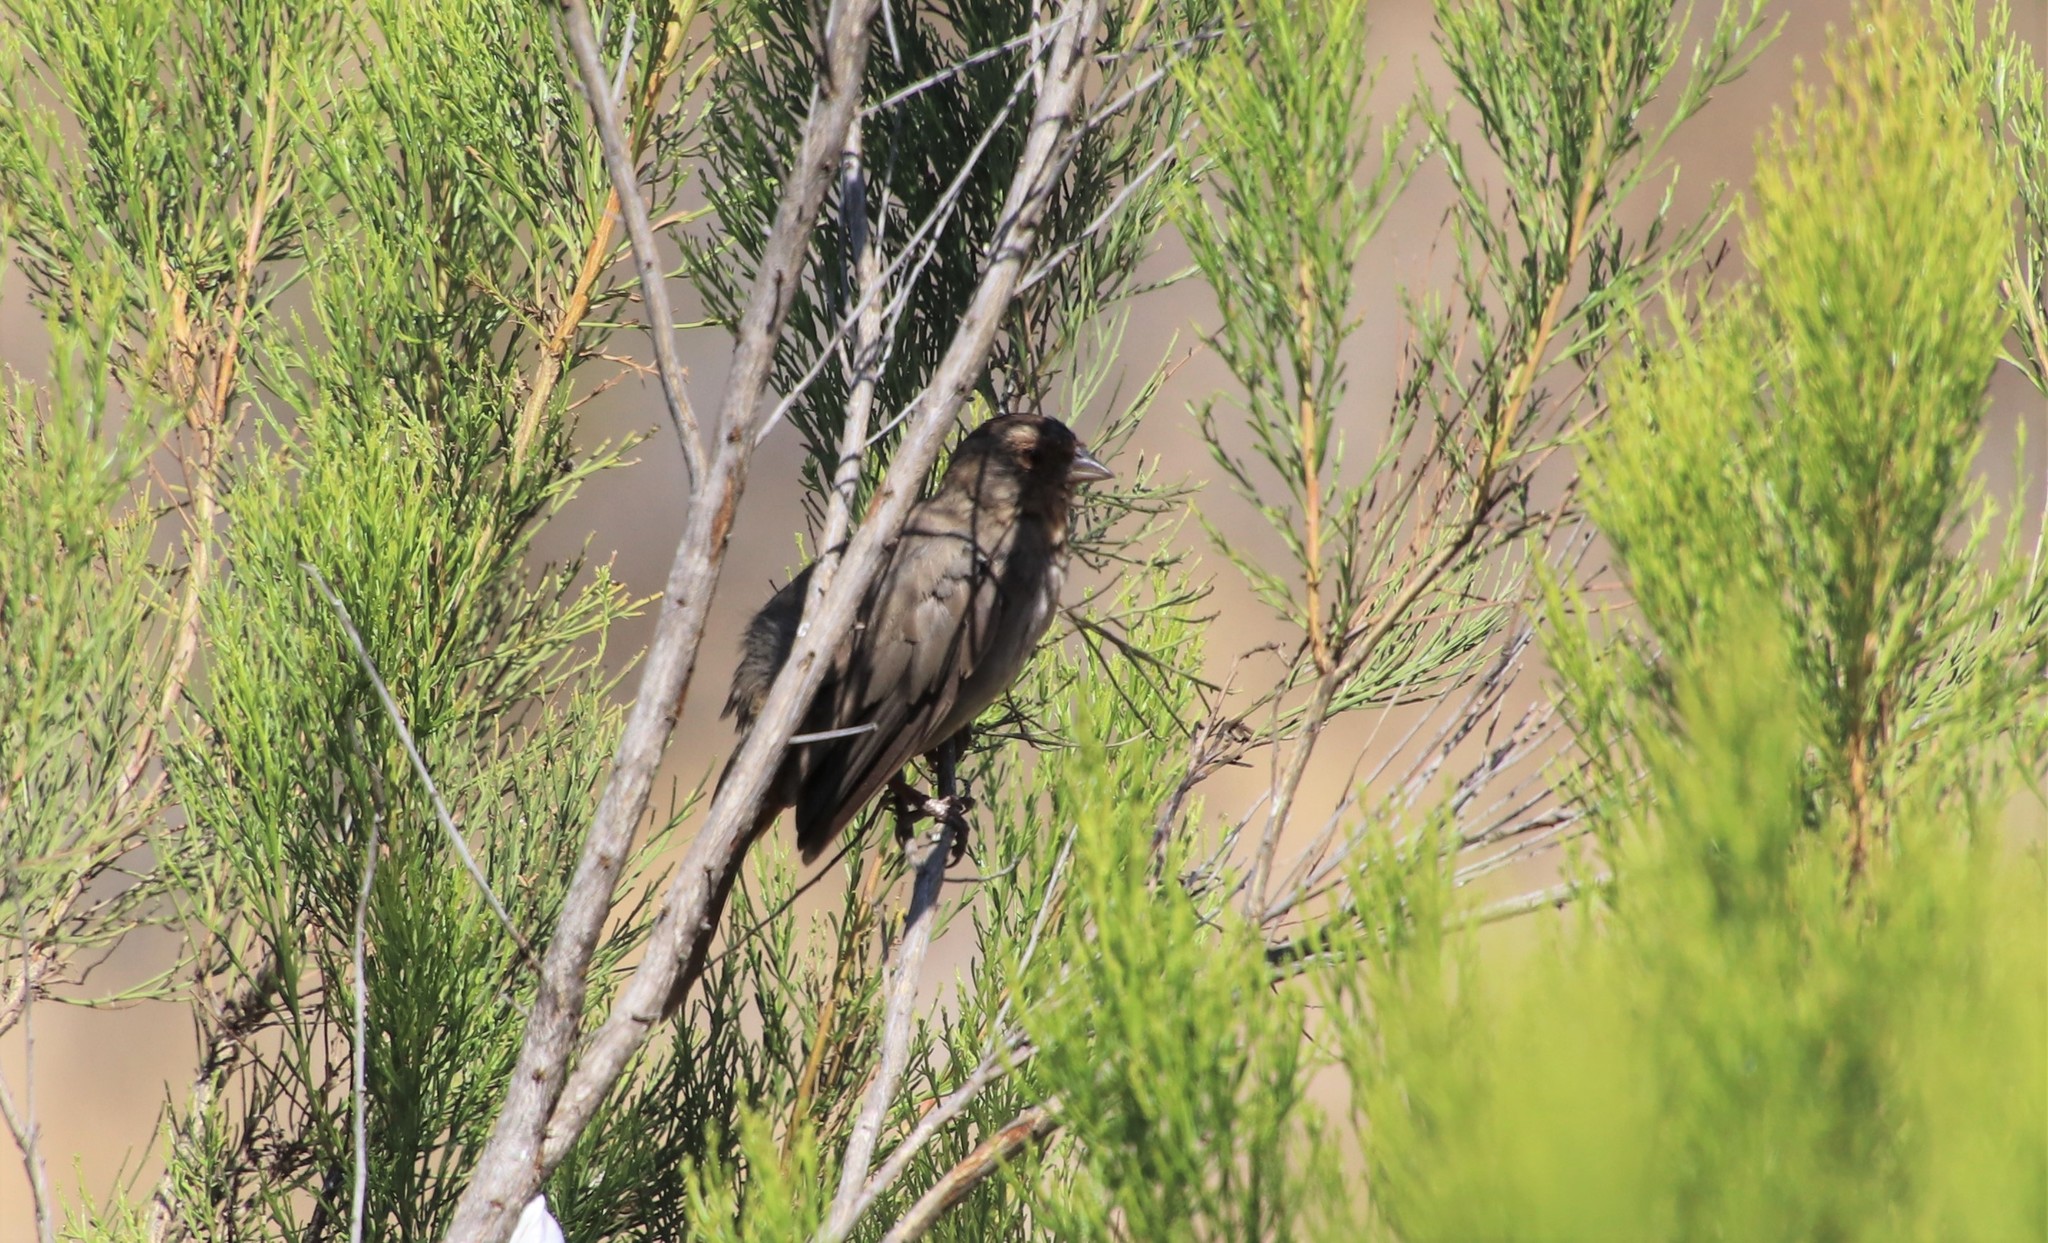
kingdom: Animalia
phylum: Chordata
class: Aves
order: Passeriformes
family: Passerellidae
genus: Melozone
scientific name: Melozone crissalis
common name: California towhee
